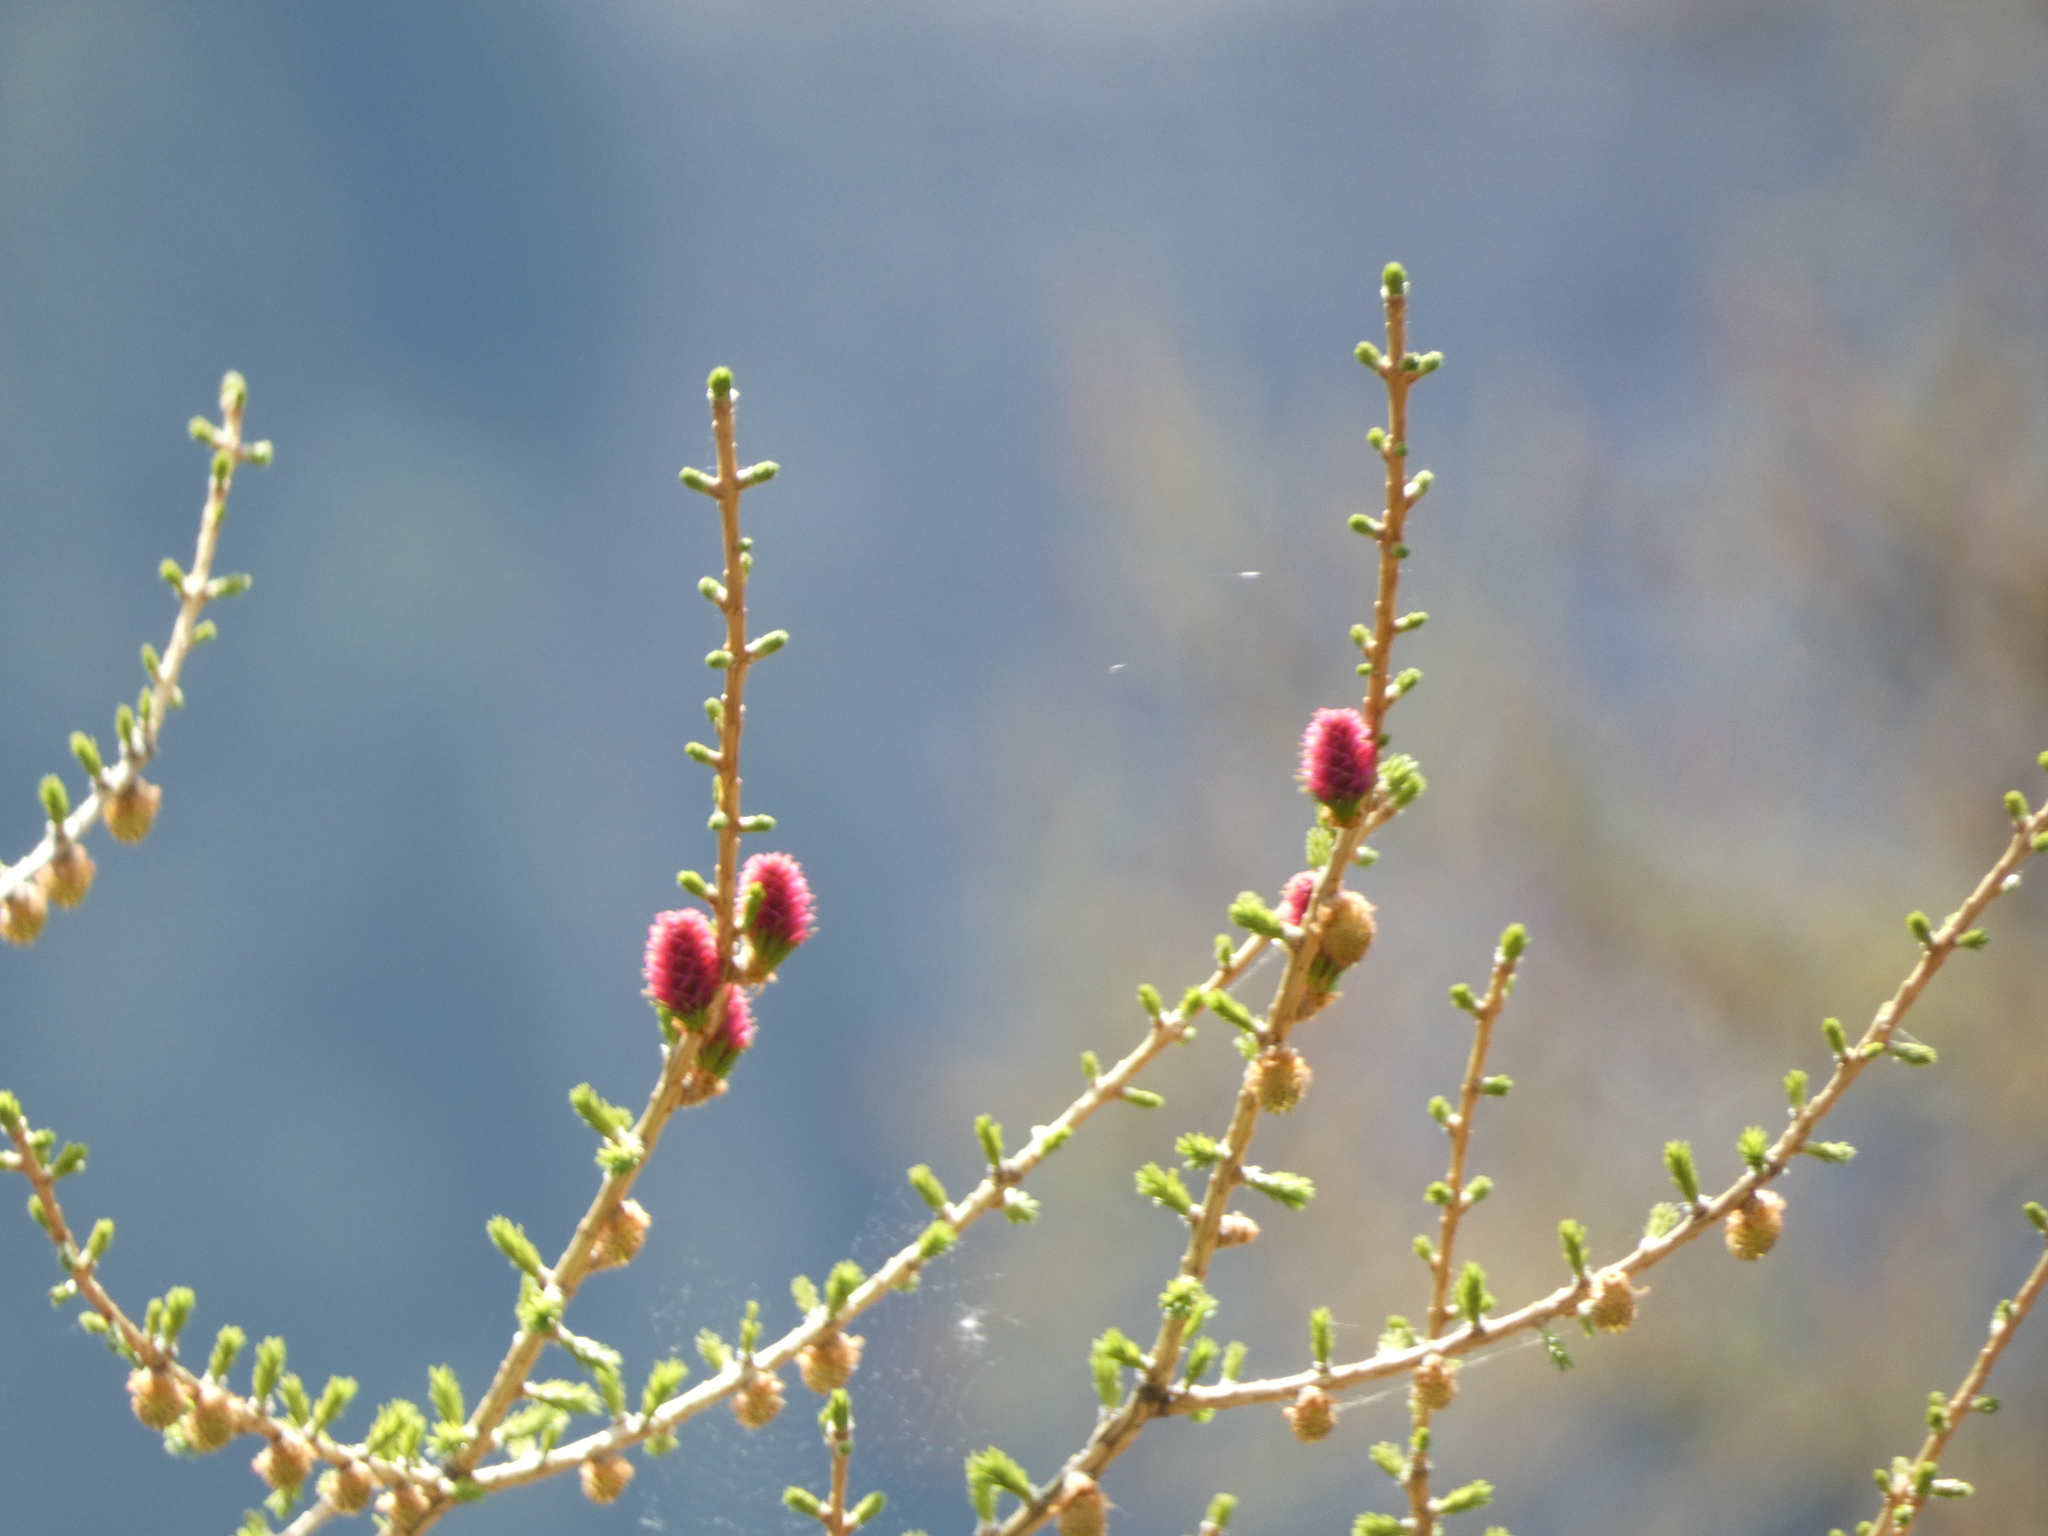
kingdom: Plantae
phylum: Tracheophyta
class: Pinopsida
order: Pinales
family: Pinaceae
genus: Larix
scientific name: Larix decidua
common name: European larch
